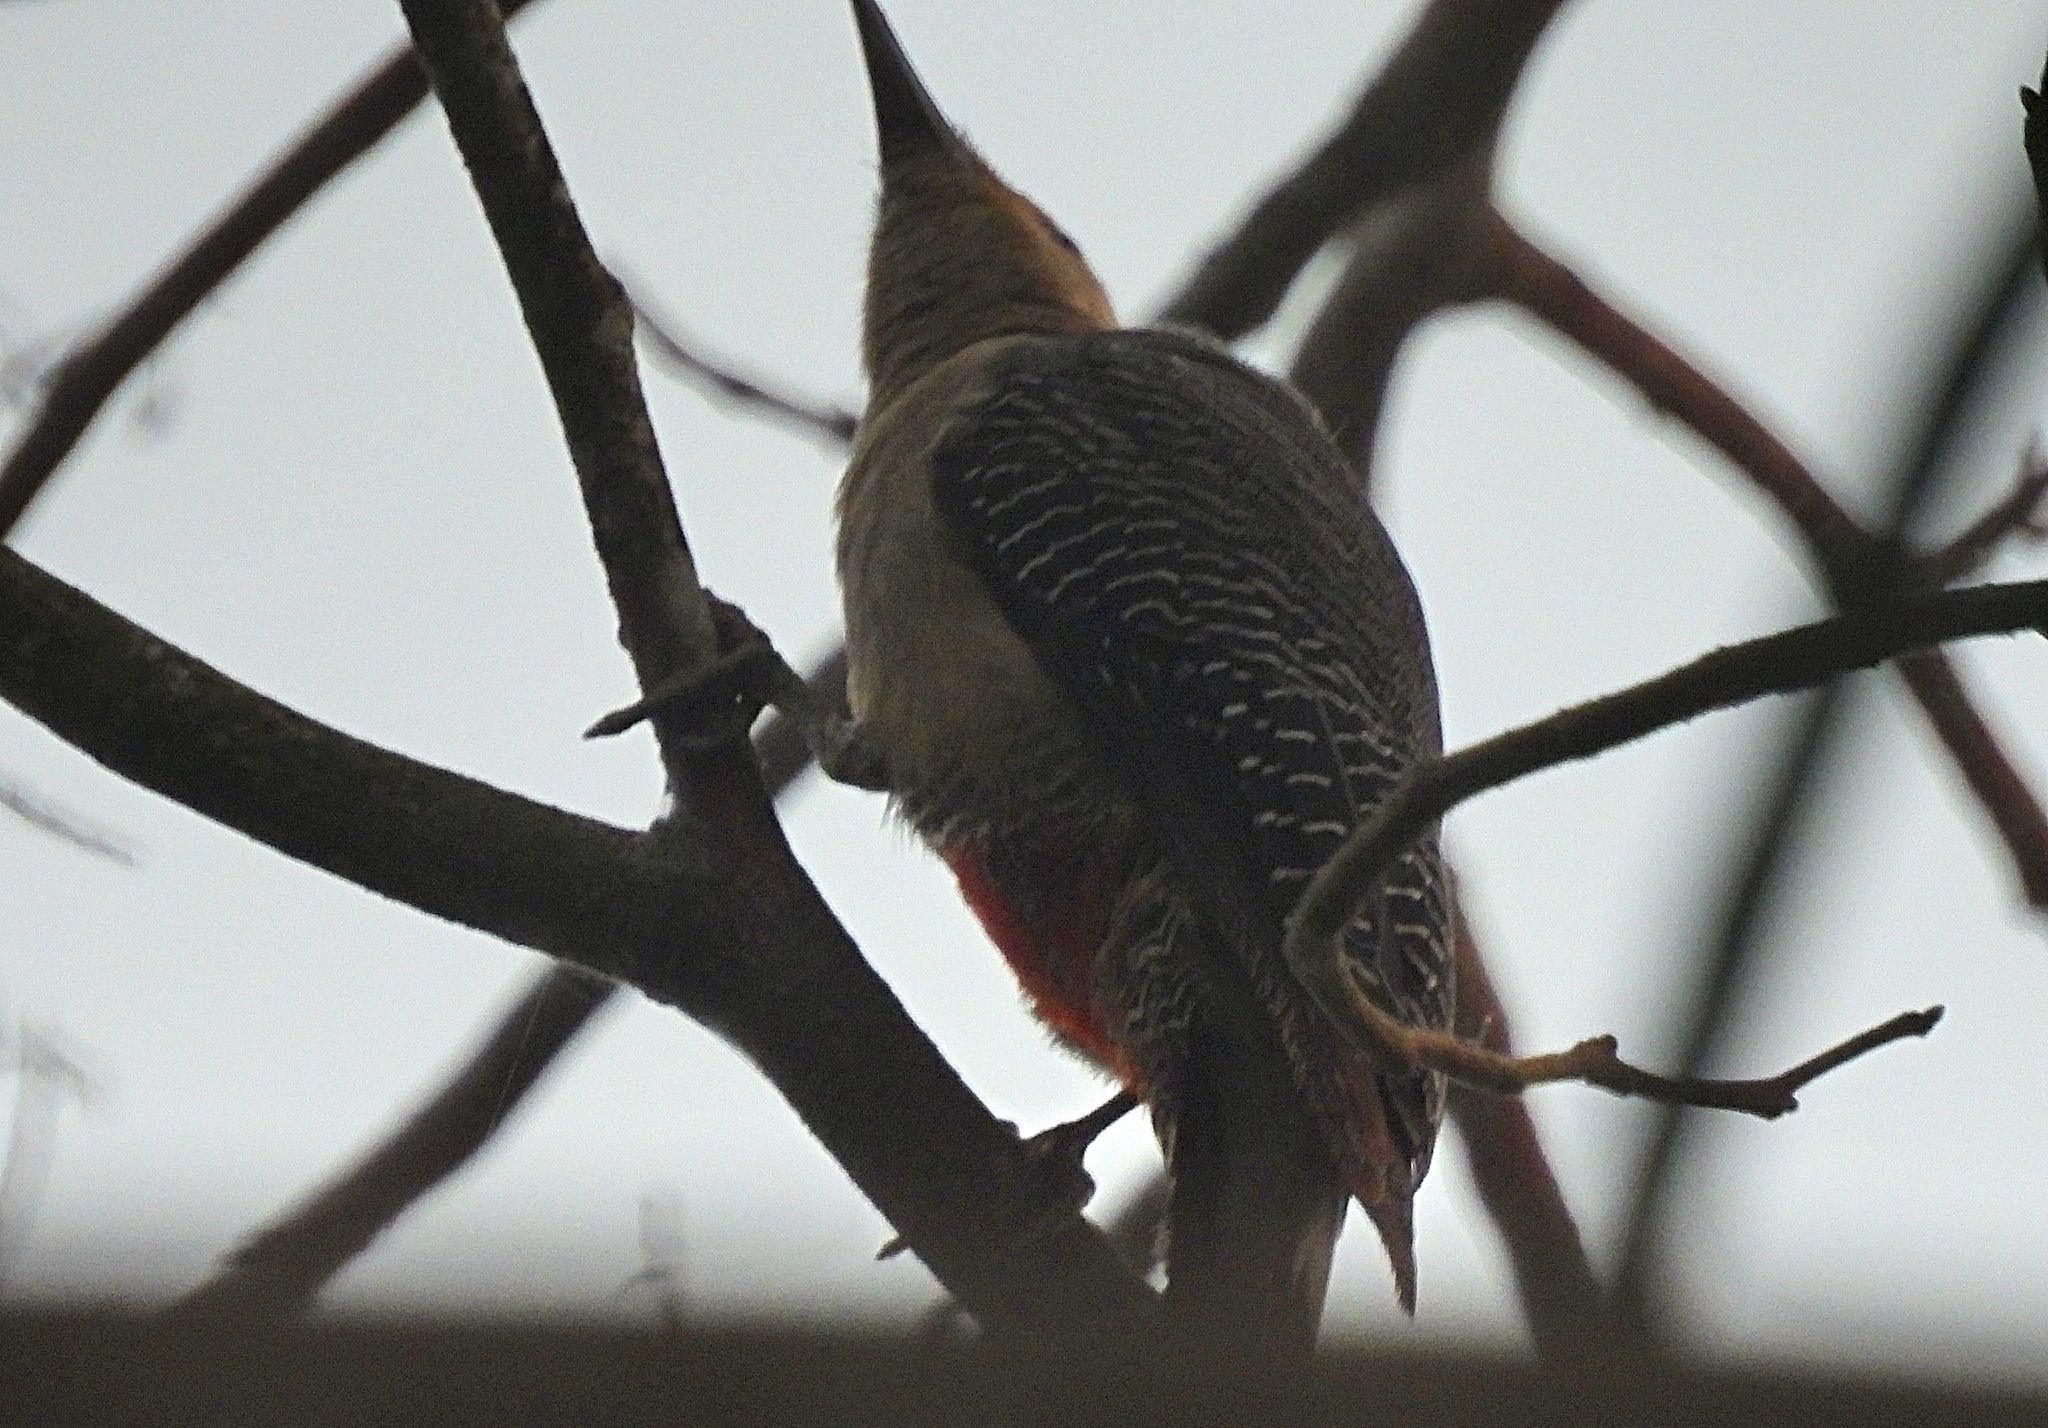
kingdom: Animalia
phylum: Chordata
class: Aves
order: Piciformes
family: Picidae
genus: Melanerpes
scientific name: Melanerpes aurifrons
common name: Golden-fronted woodpecker
